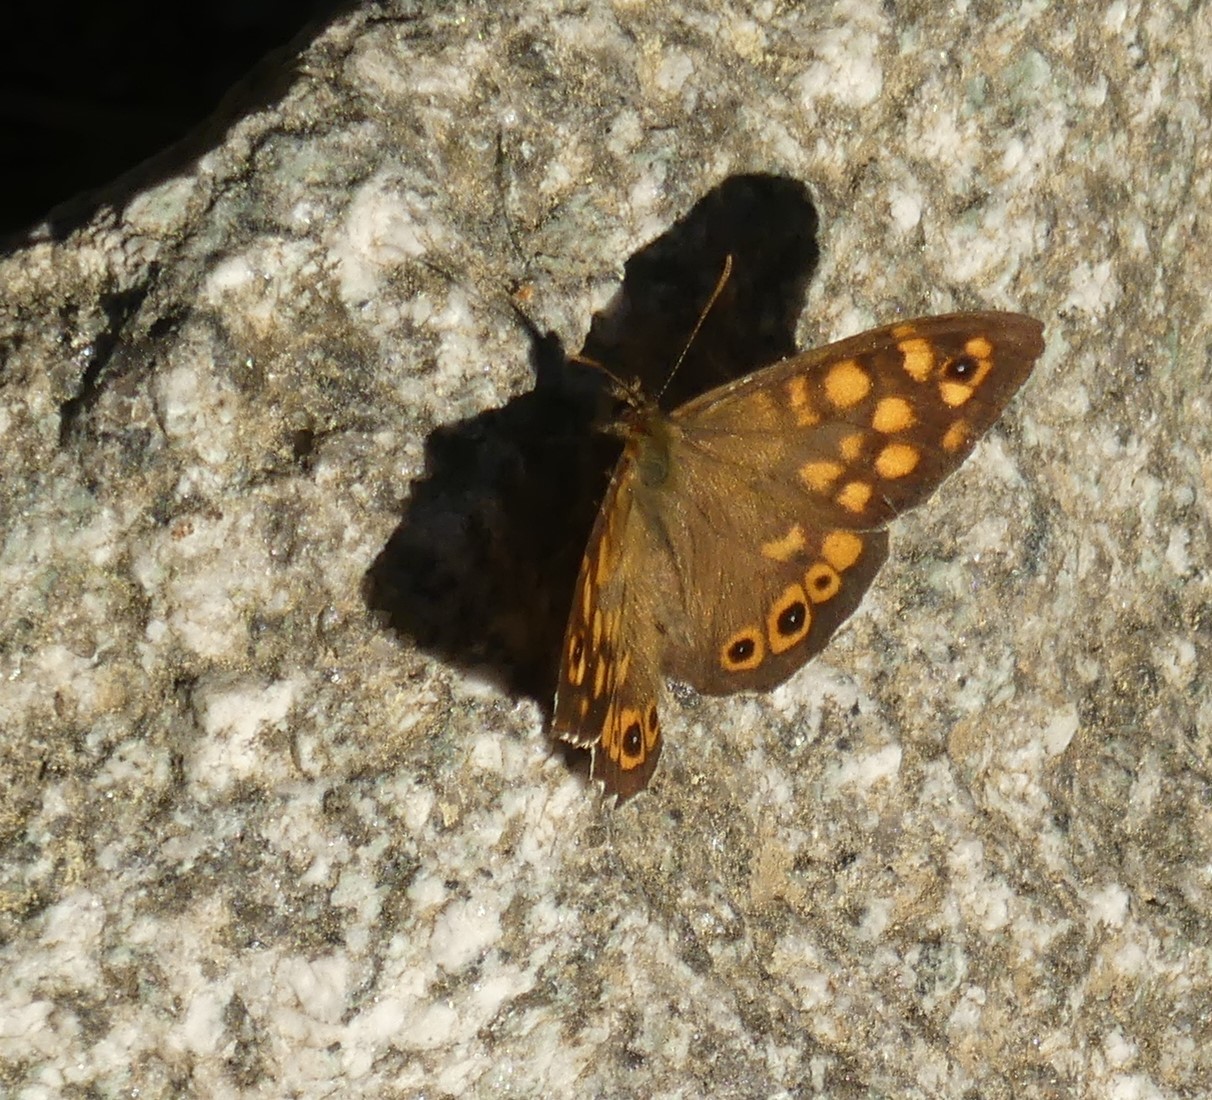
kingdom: Animalia
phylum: Arthropoda
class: Insecta
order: Lepidoptera
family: Nymphalidae
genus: Pararge
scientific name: Pararge aegeria
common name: Speckled wood
